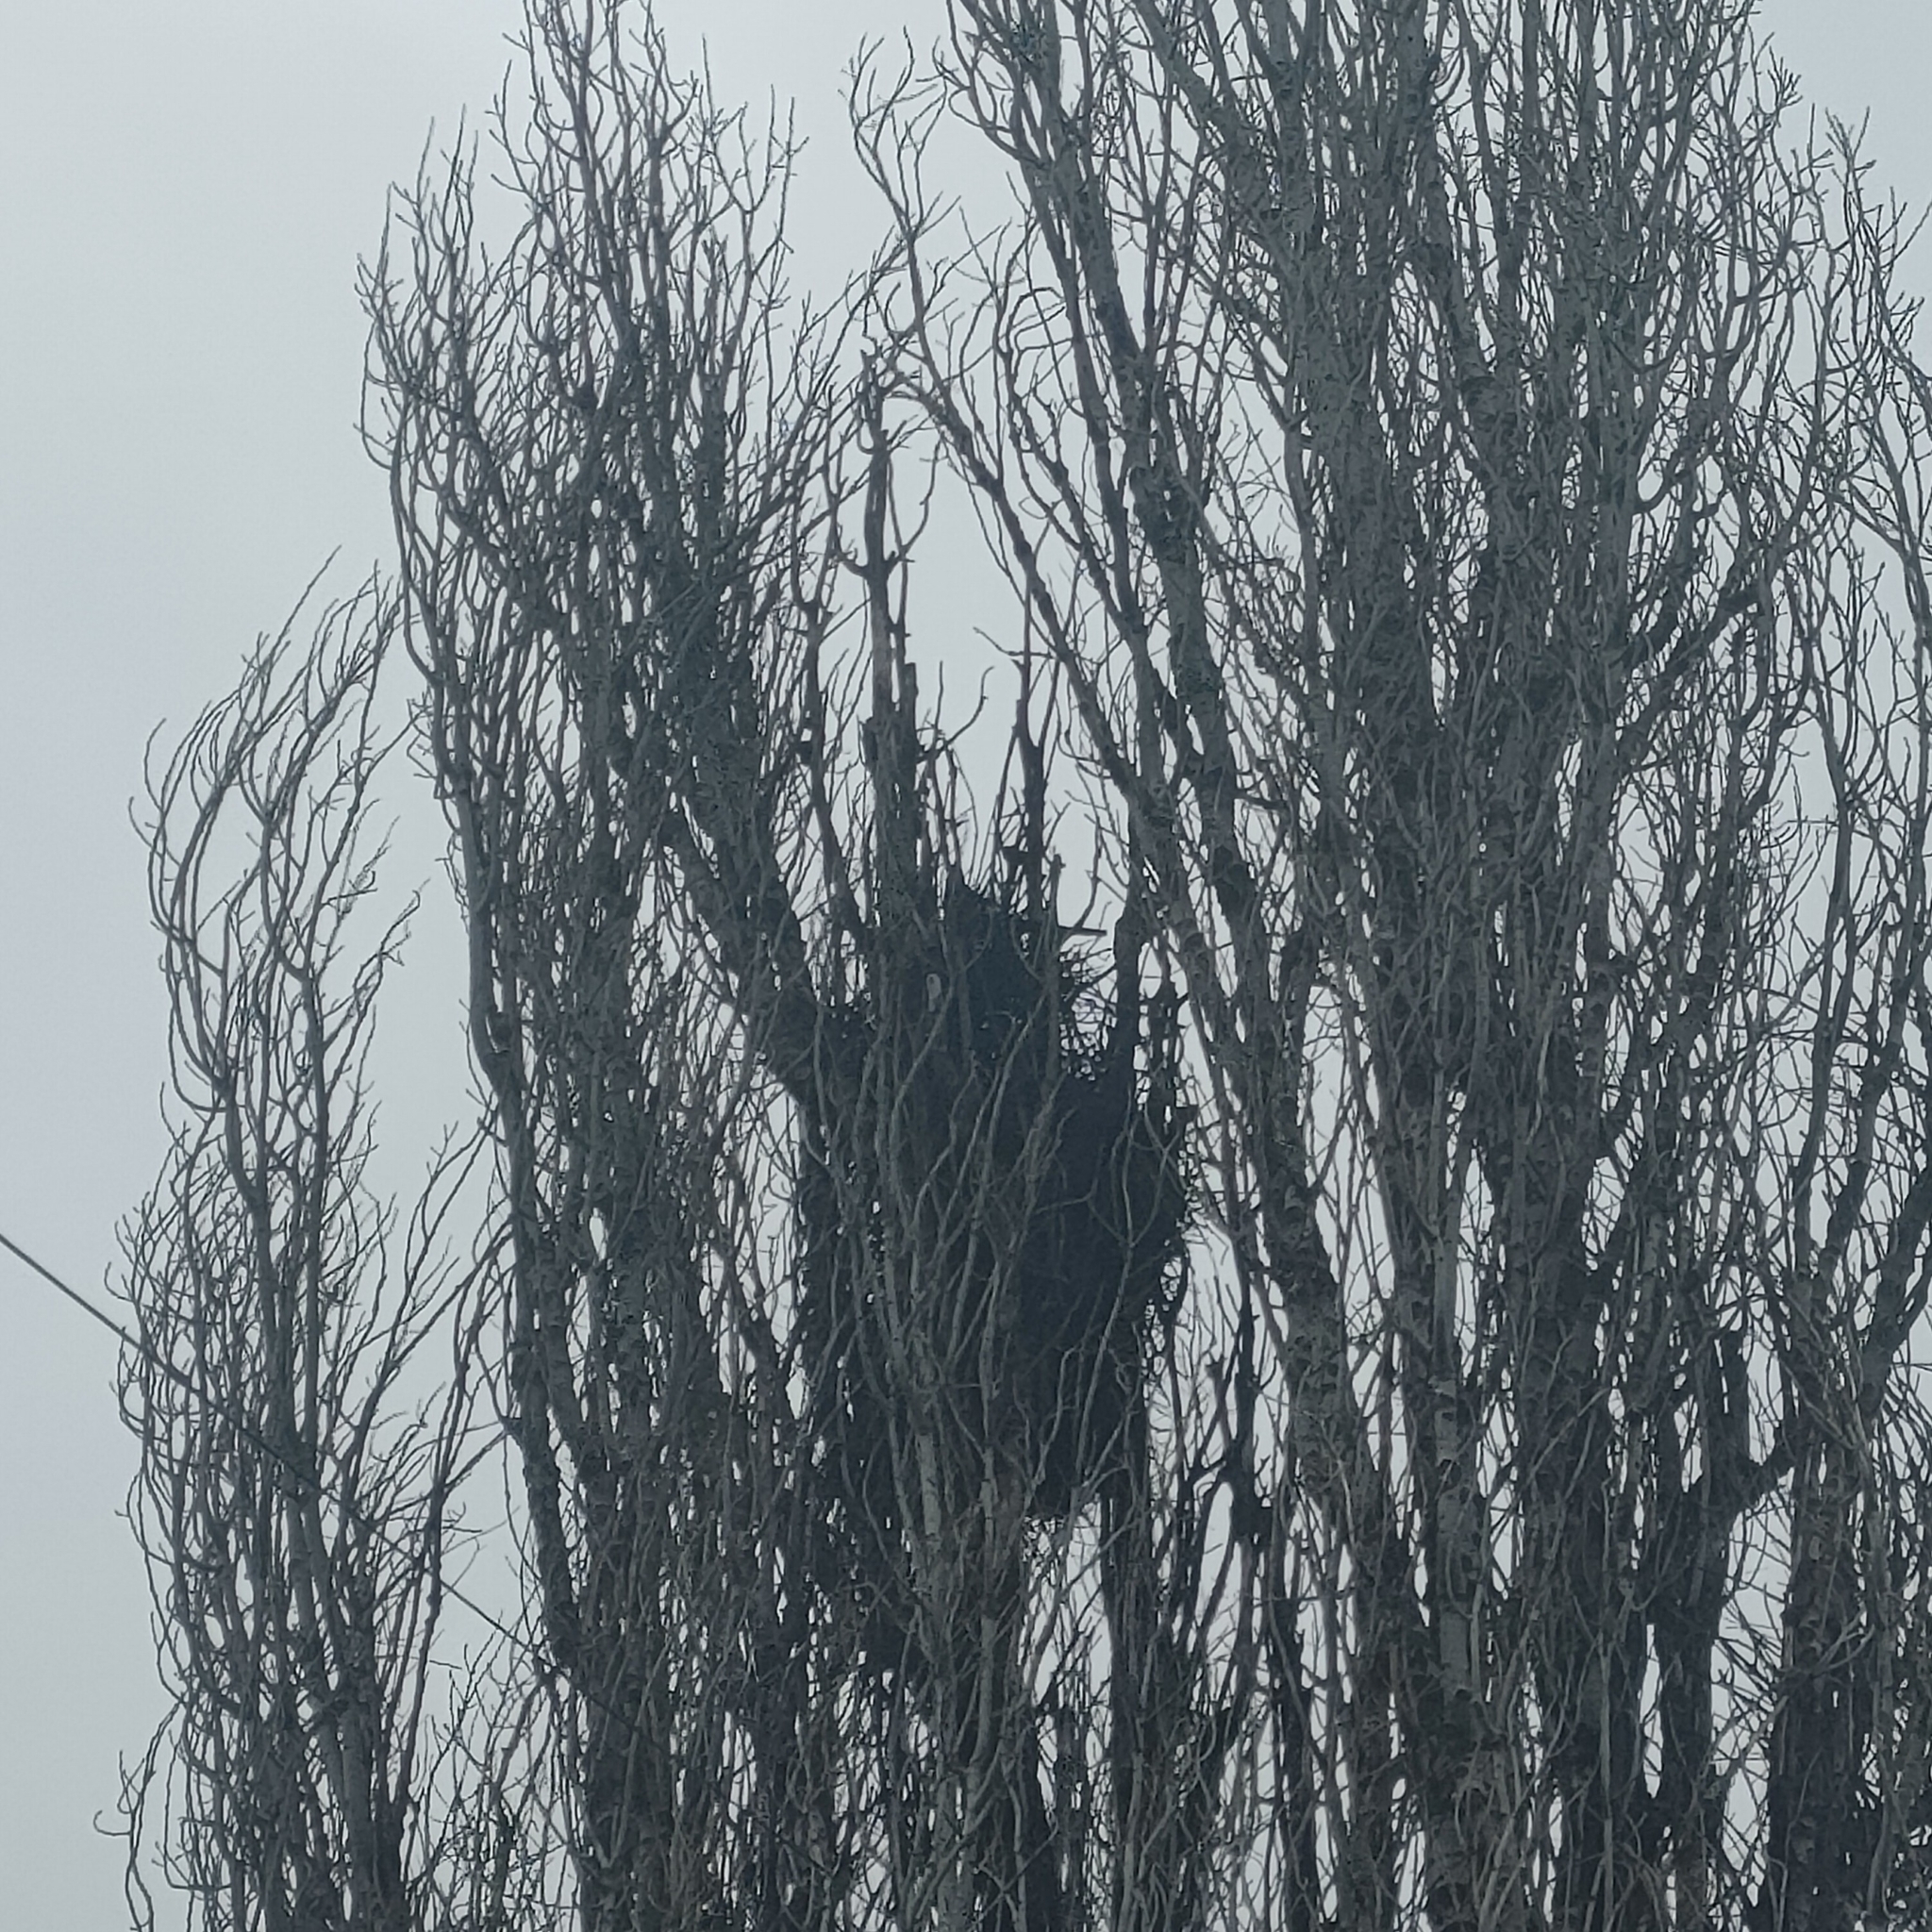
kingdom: Animalia
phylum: Chordata
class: Aves
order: Passeriformes
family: Corvidae
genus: Pica
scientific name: Pica pica
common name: Eurasian magpie
